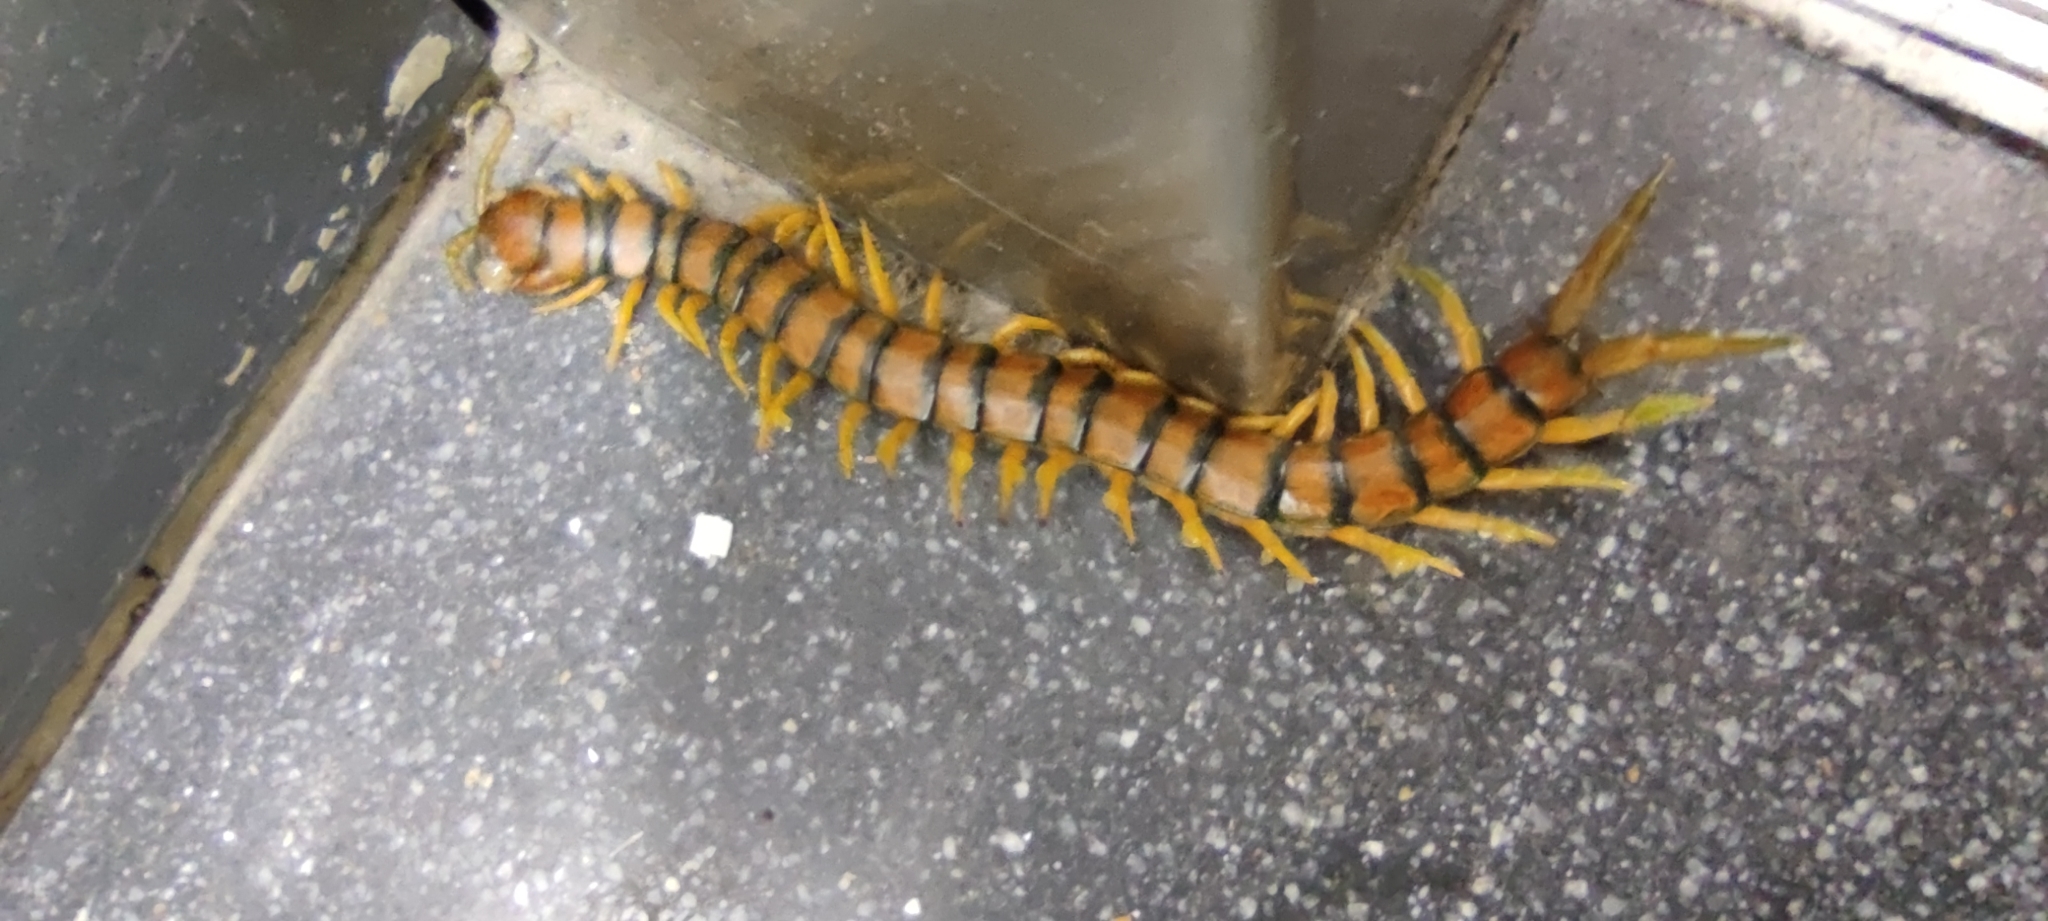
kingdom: Animalia
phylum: Arthropoda
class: Chilopoda
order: Scolopendromorpha
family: Scolopendridae
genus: Scolopendra
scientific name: Scolopendra cingulata
